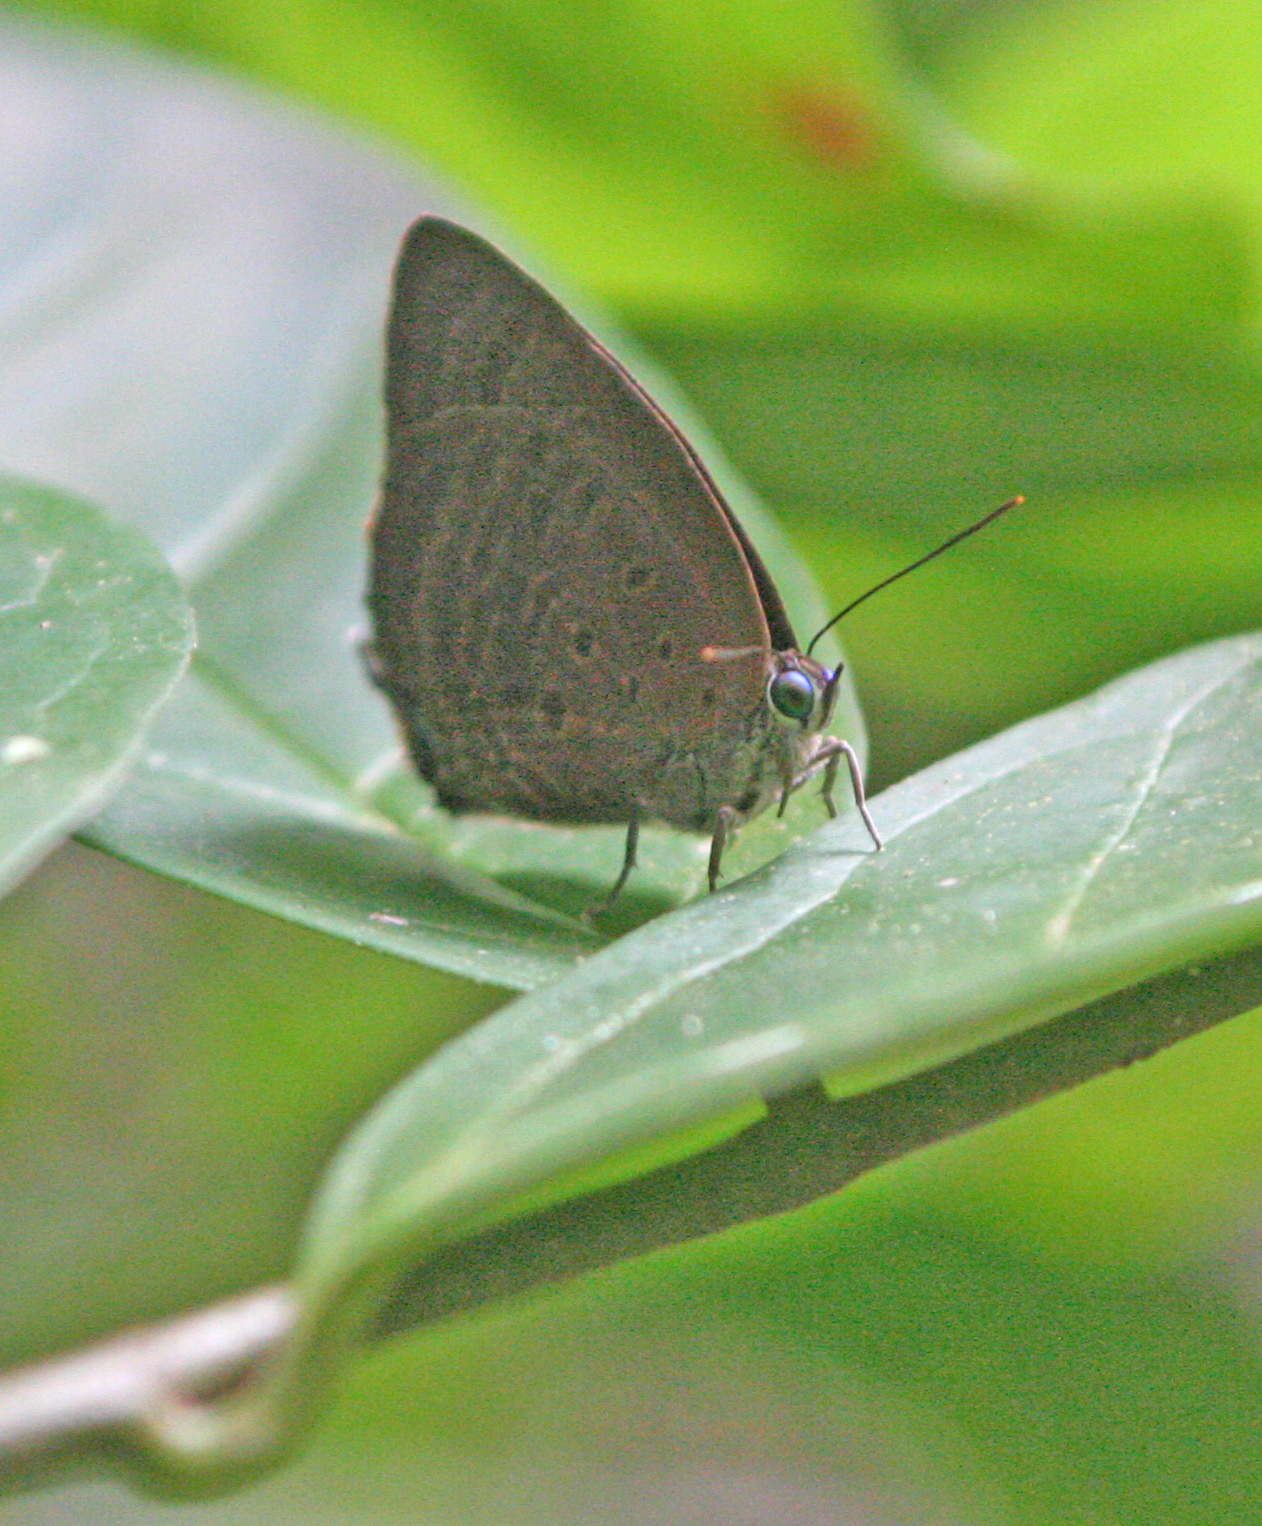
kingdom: Animalia
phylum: Arthropoda
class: Insecta
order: Lepidoptera
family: Lycaenidae
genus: Arhopala
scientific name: Arhopala allata
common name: Rosy oakblue
